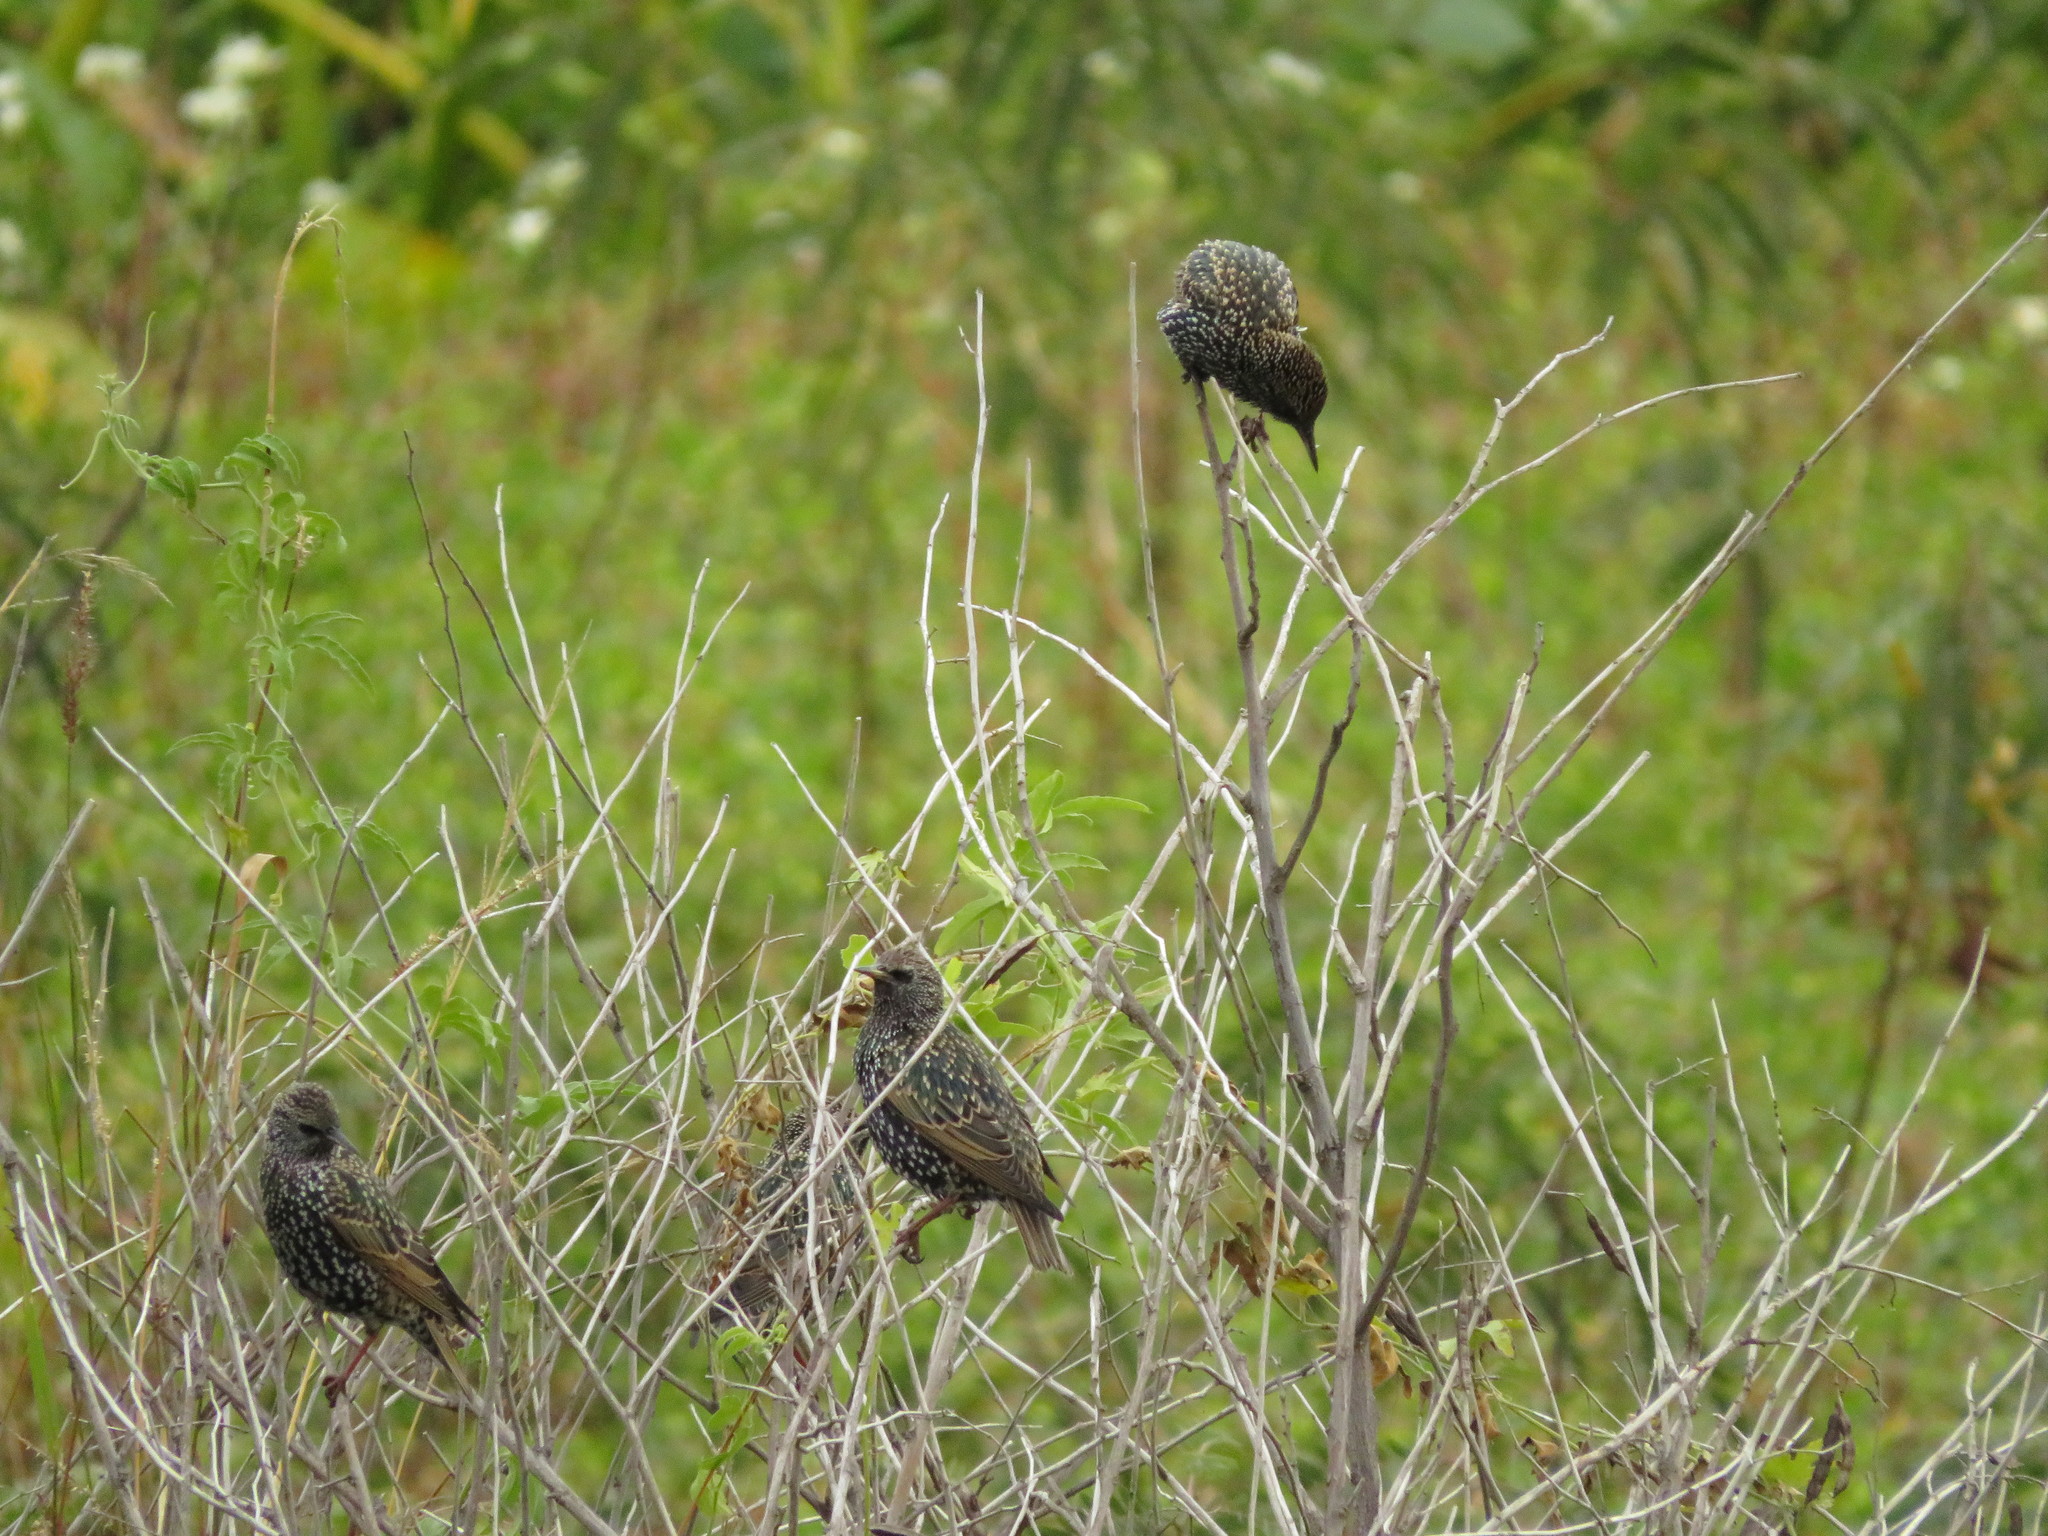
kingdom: Animalia
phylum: Chordata
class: Aves
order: Passeriformes
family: Sturnidae
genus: Sturnus
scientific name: Sturnus vulgaris
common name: Common starling
